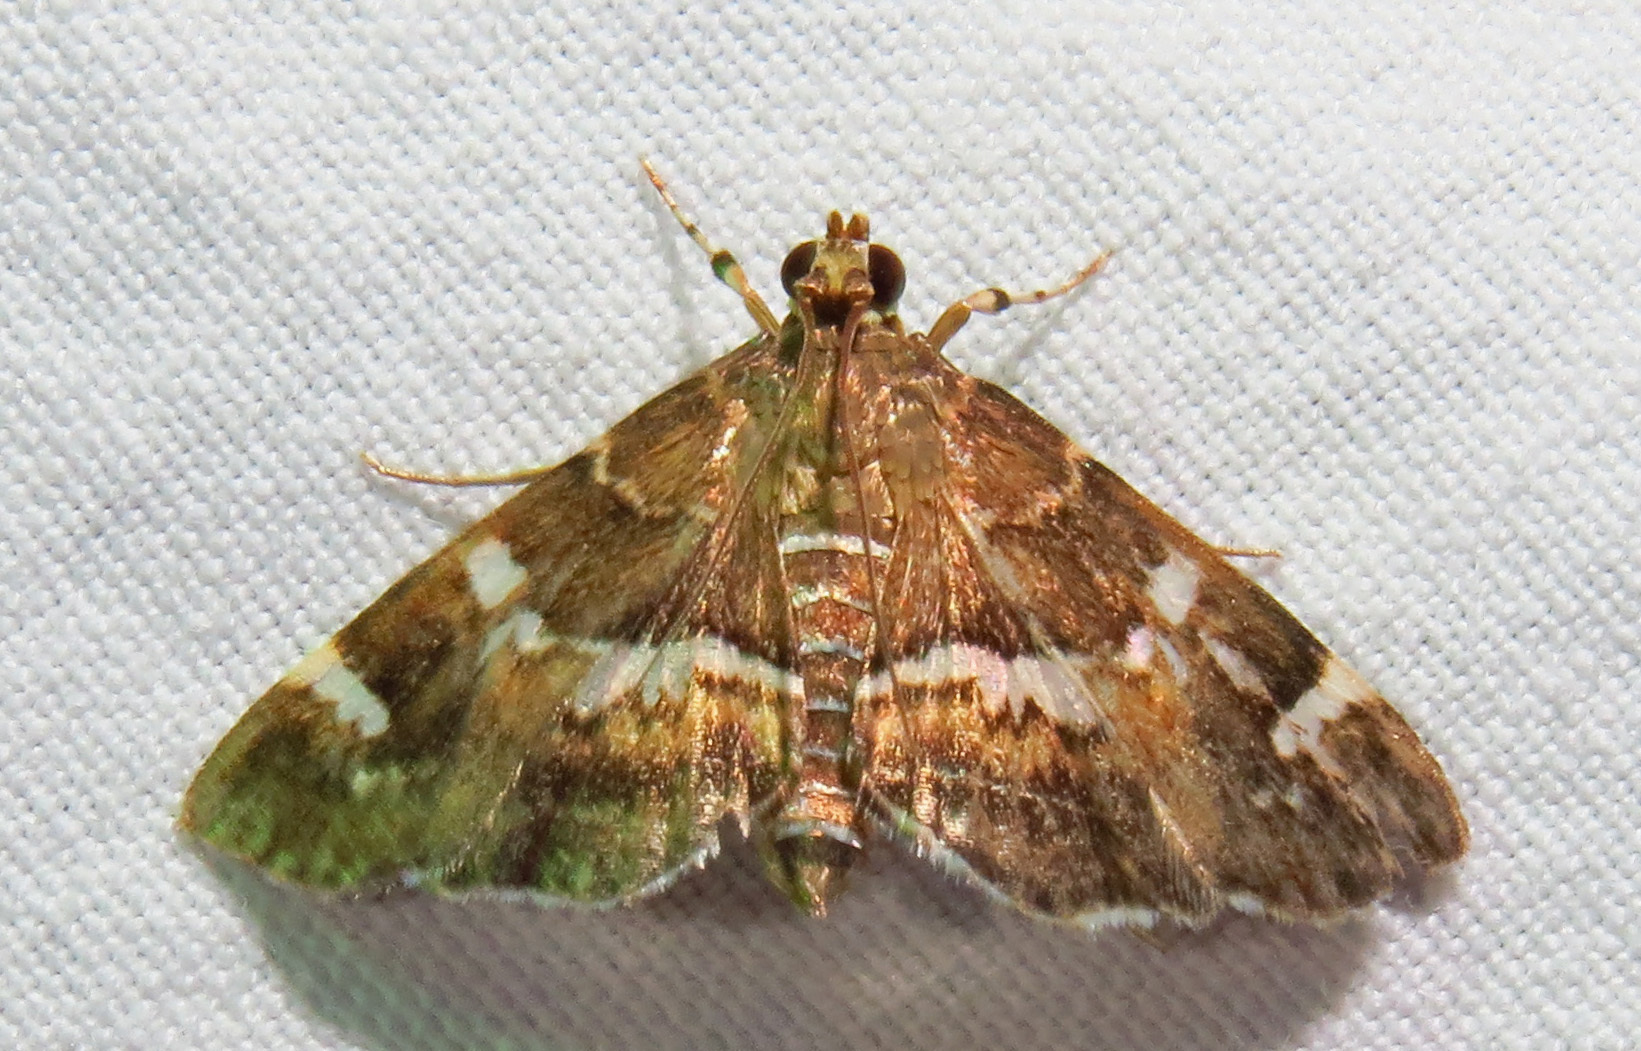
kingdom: Animalia
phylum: Arthropoda
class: Insecta
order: Lepidoptera
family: Crambidae
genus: Hymenia
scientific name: Hymenia perspectalis
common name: Spotted beet webworm
